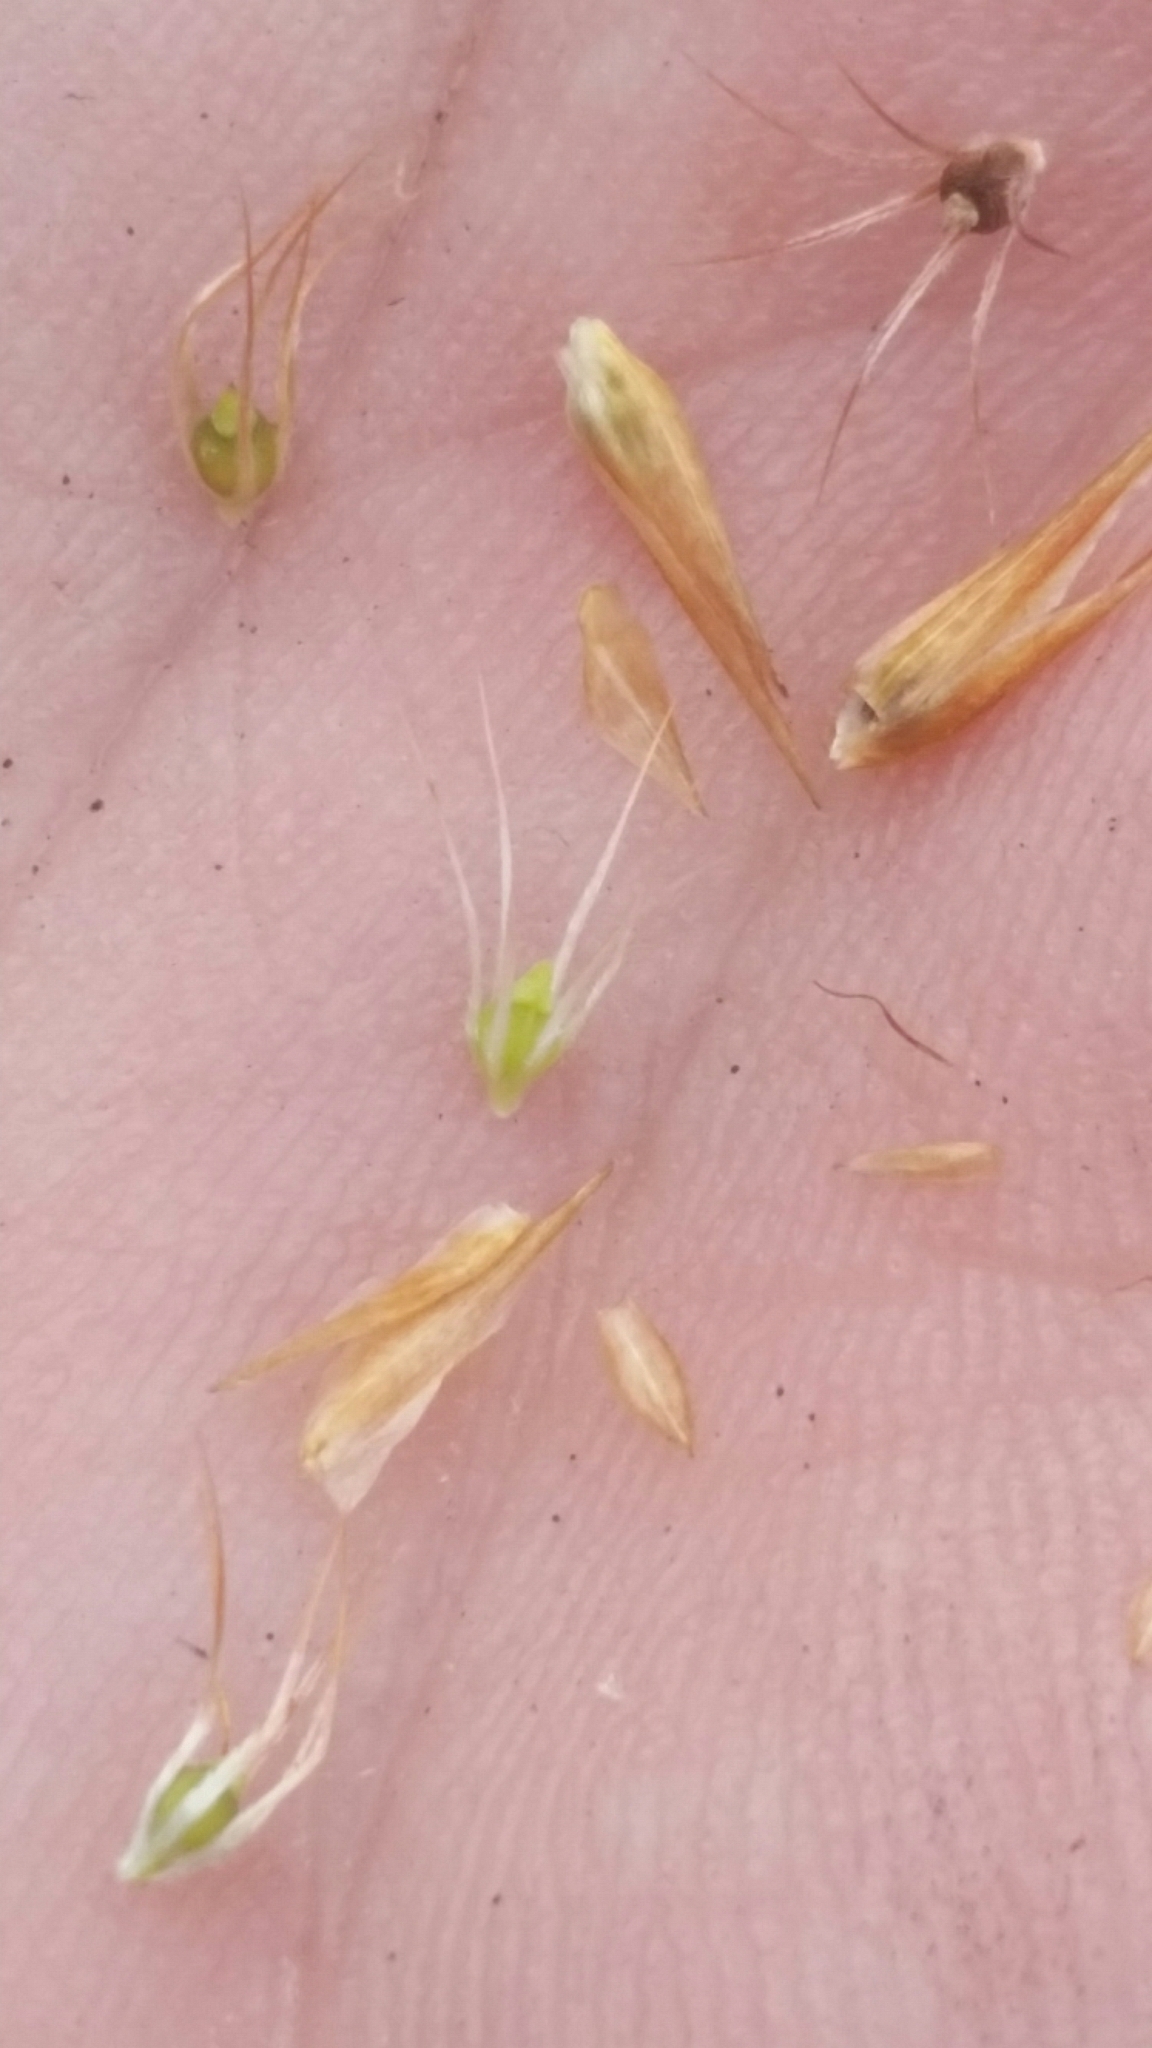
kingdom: Plantae
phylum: Tracheophyta
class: Liliopsida
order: Poales
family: Cyperaceae
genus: Rhynchospora
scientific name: Rhynchospora megaplumosa
